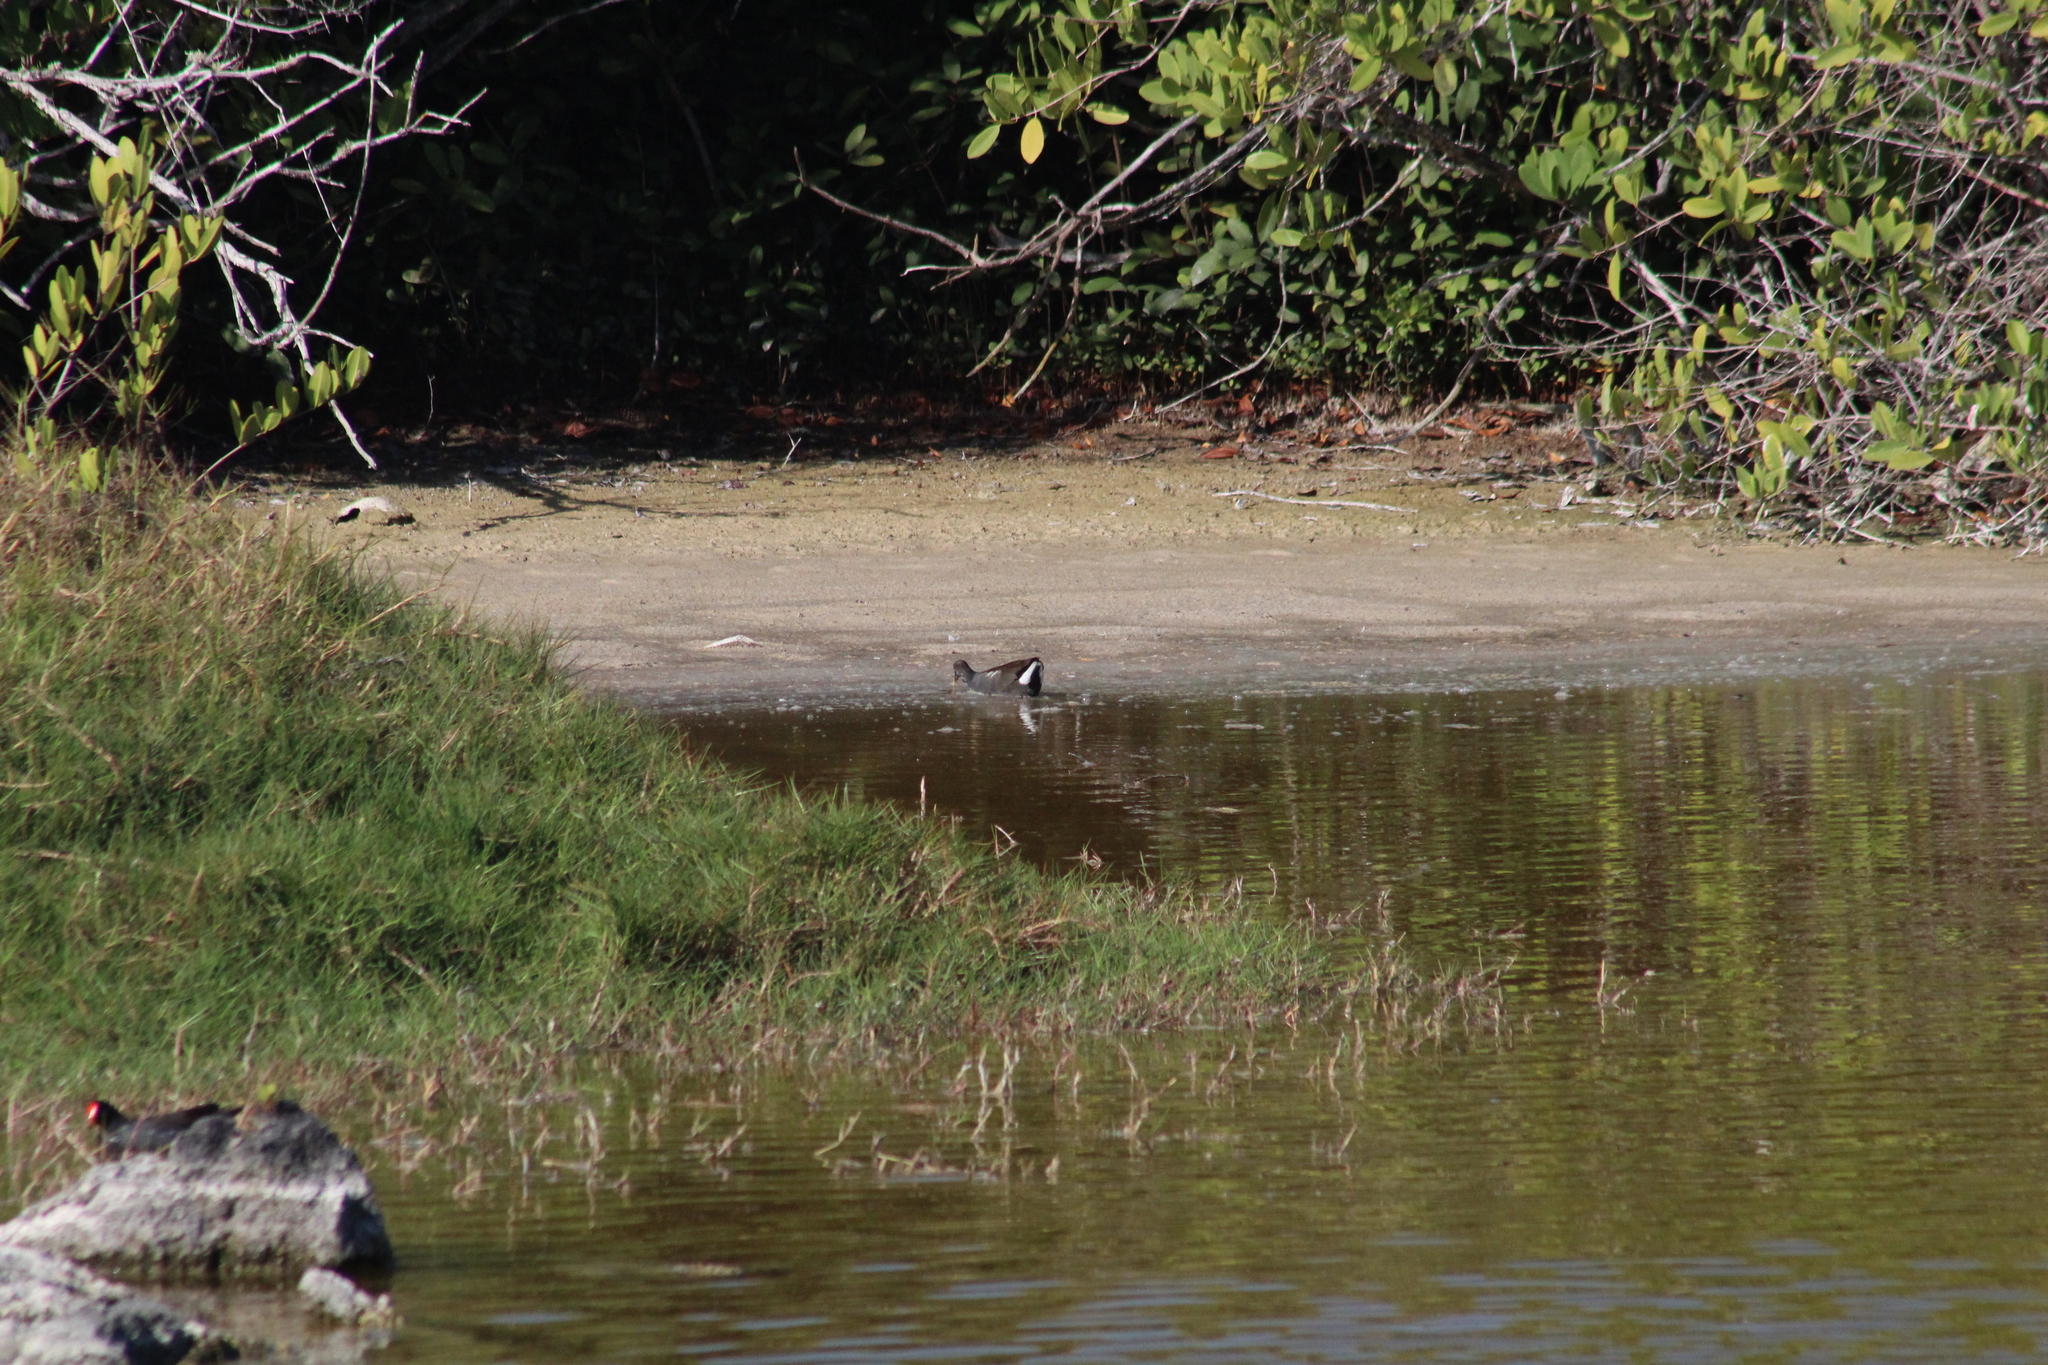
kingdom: Animalia
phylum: Chordata
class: Aves
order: Gruiformes
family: Rallidae
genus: Gallinula
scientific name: Gallinula chloropus
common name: Common moorhen
